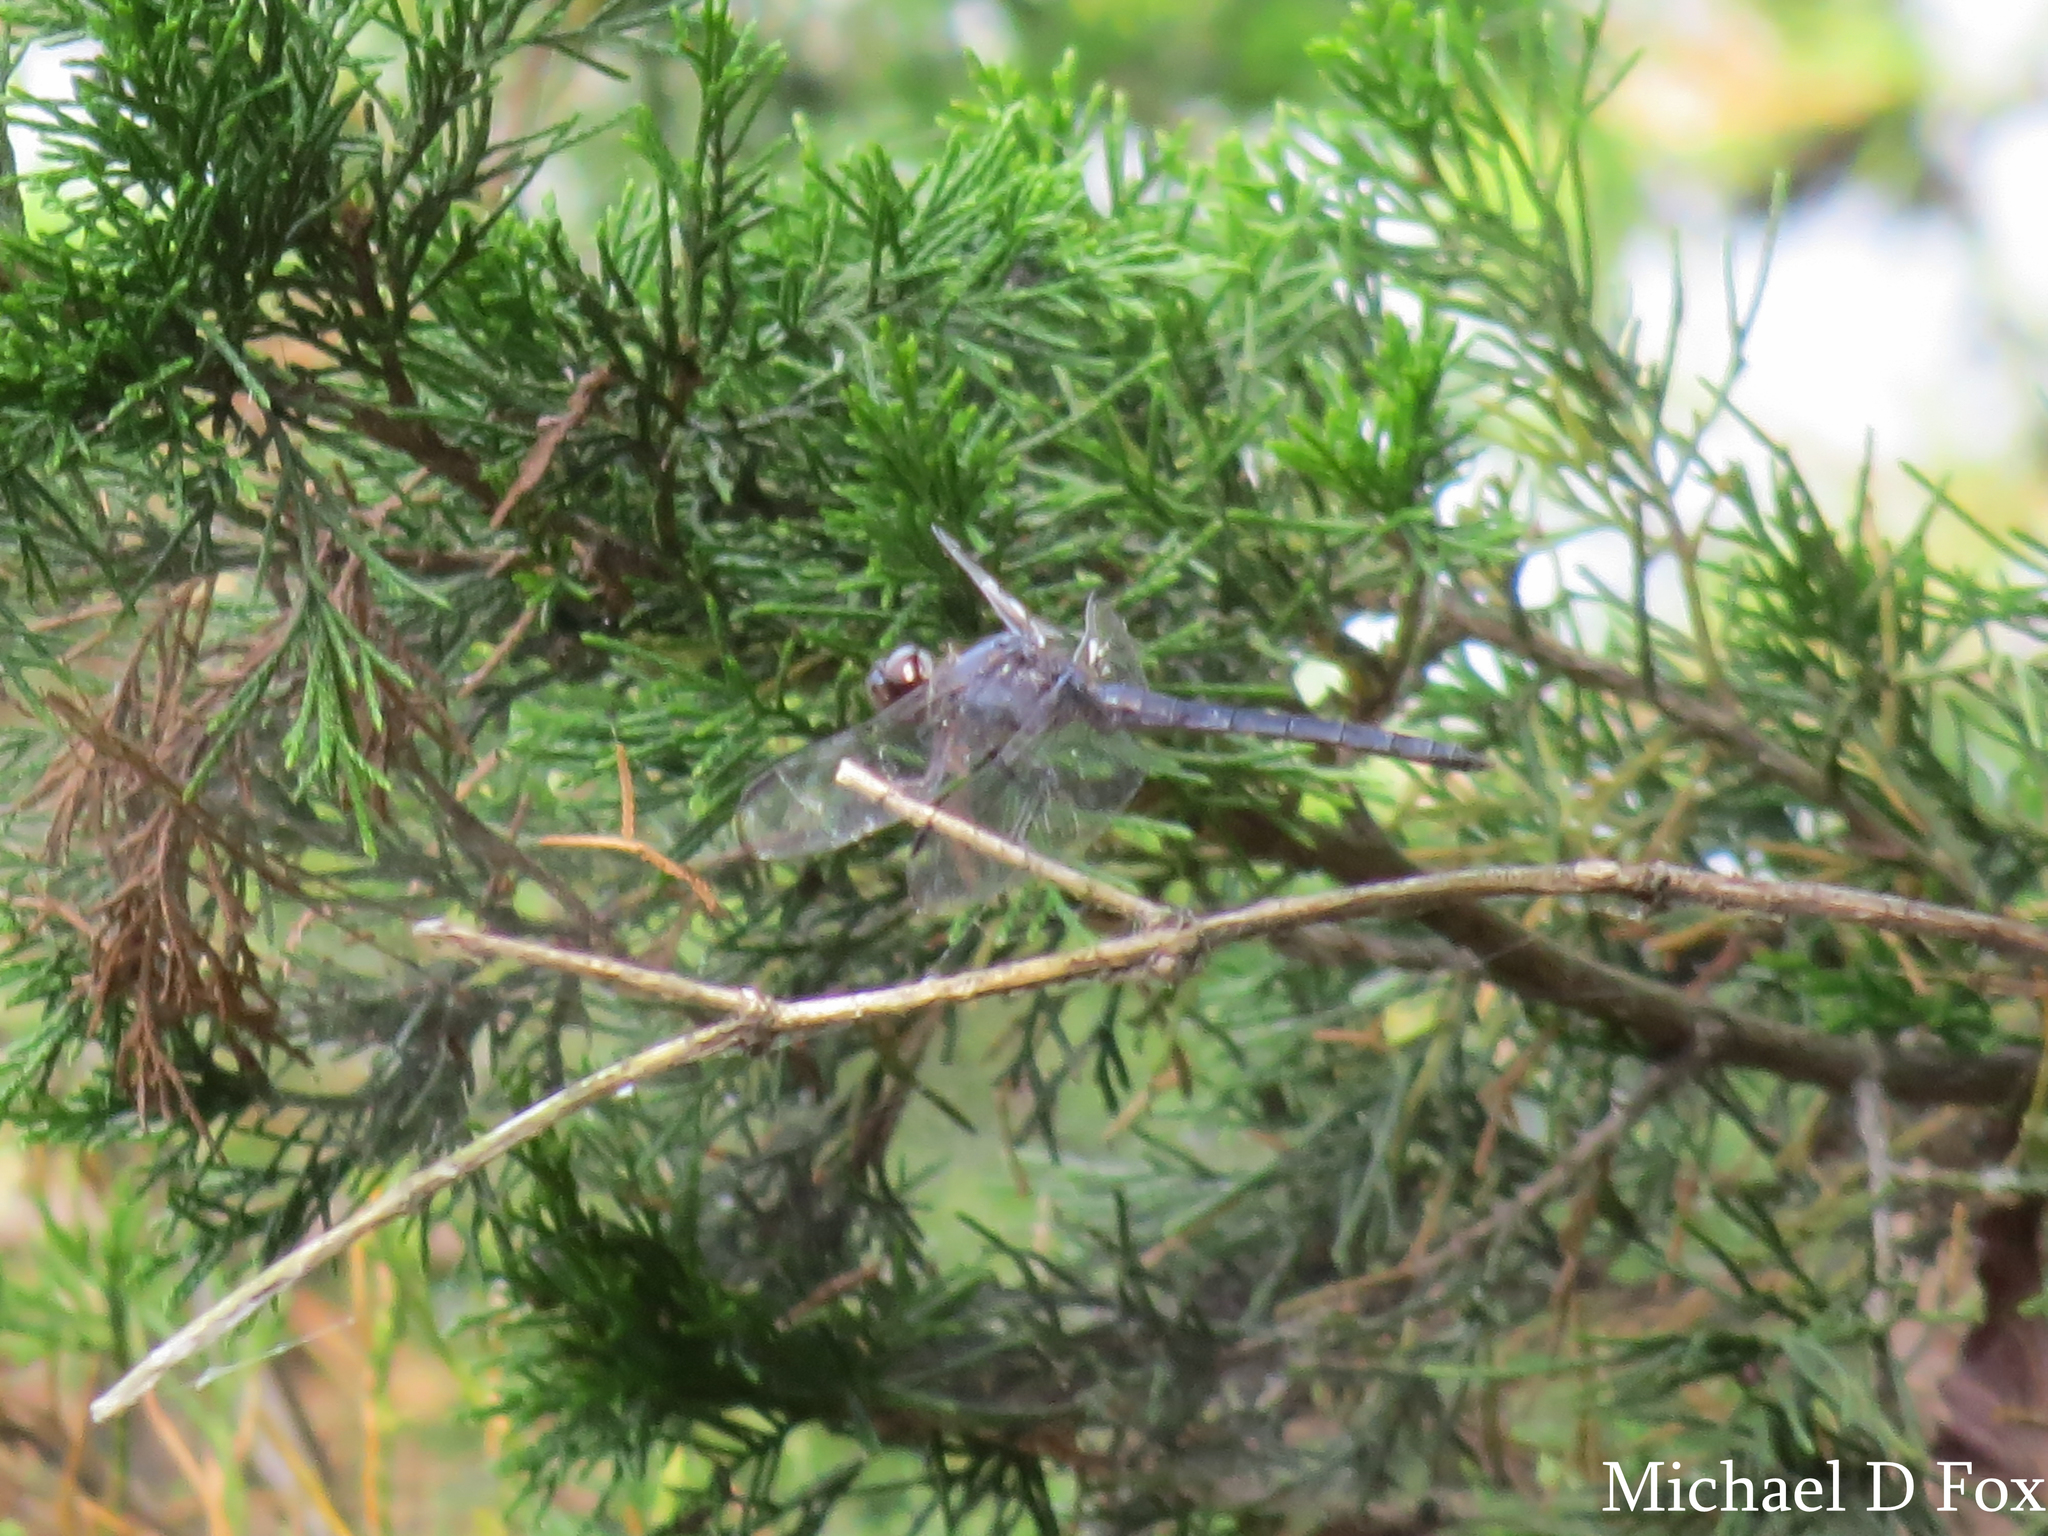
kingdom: Animalia
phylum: Arthropoda
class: Insecta
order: Odonata
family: Libellulidae
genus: Libellula
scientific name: Libellula incesta
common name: Slaty skimmer
